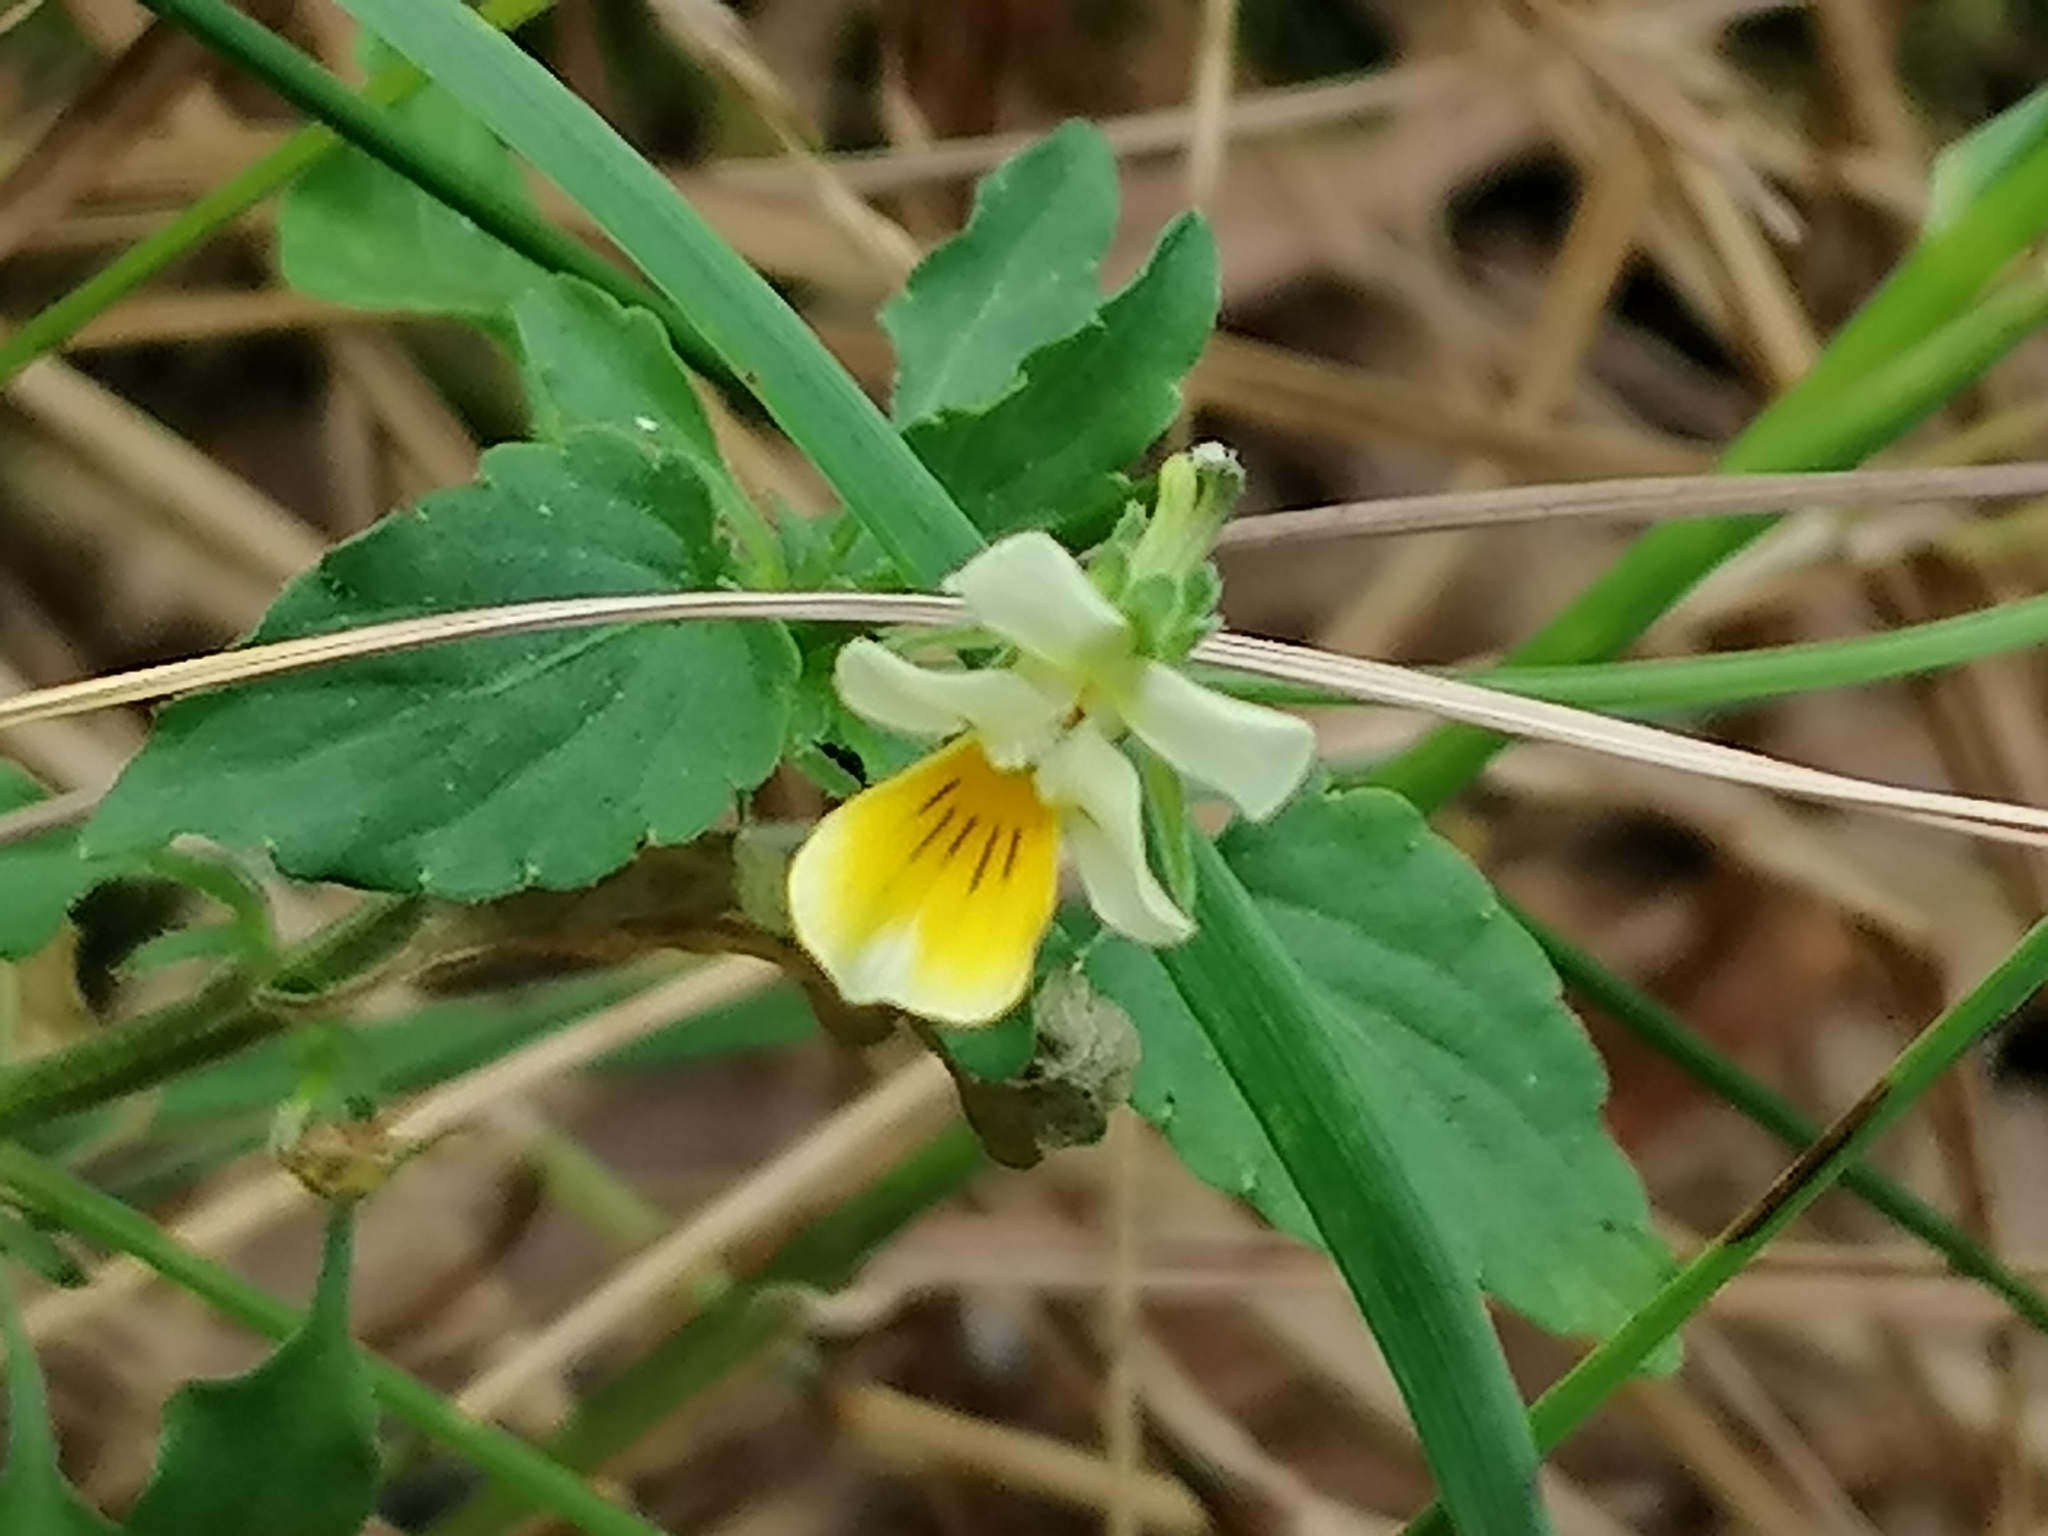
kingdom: Plantae
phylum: Tracheophyta
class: Magnoliopsida
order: Malpighiales
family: Violaceae
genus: Viola
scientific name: Viola arvensis
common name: Field pansy
